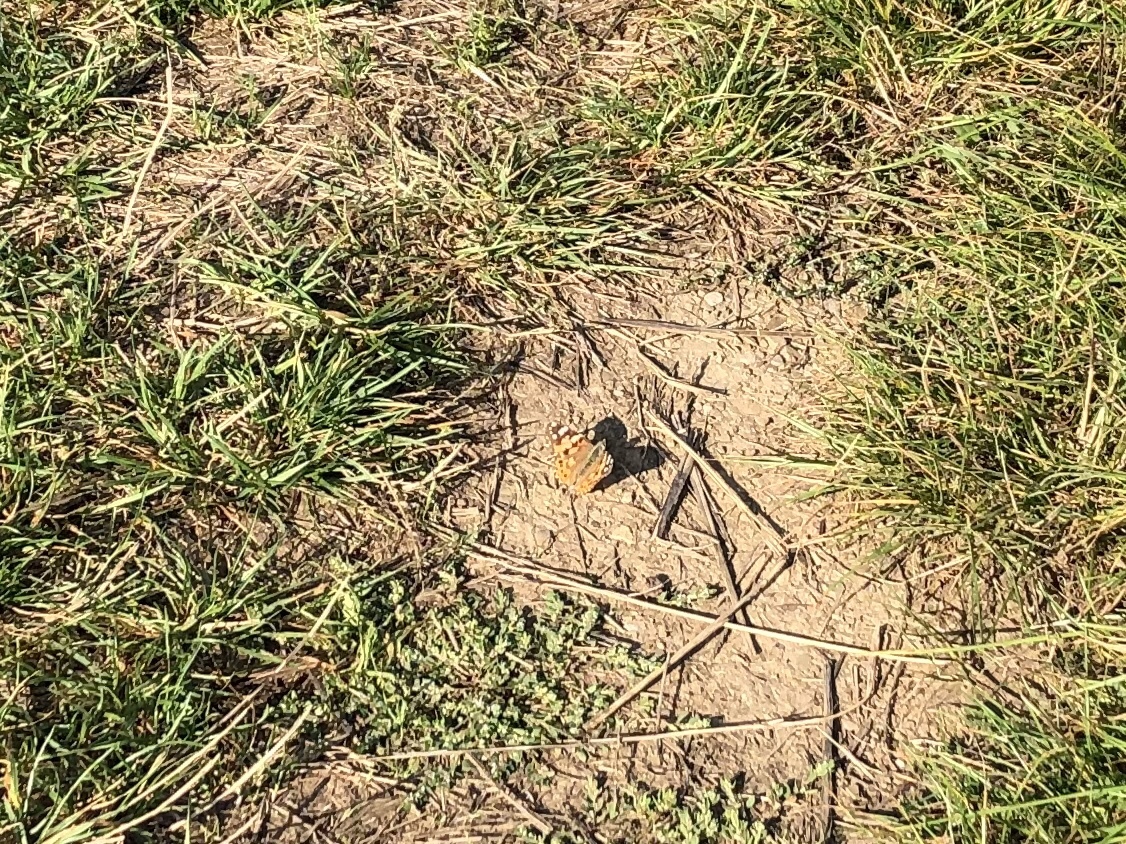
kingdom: Animalia
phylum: Arthropoda
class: Insecta
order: Lepidoptera
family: Nymphalidae
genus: Vanessa
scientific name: Vanessa cardui
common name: Painted lady
